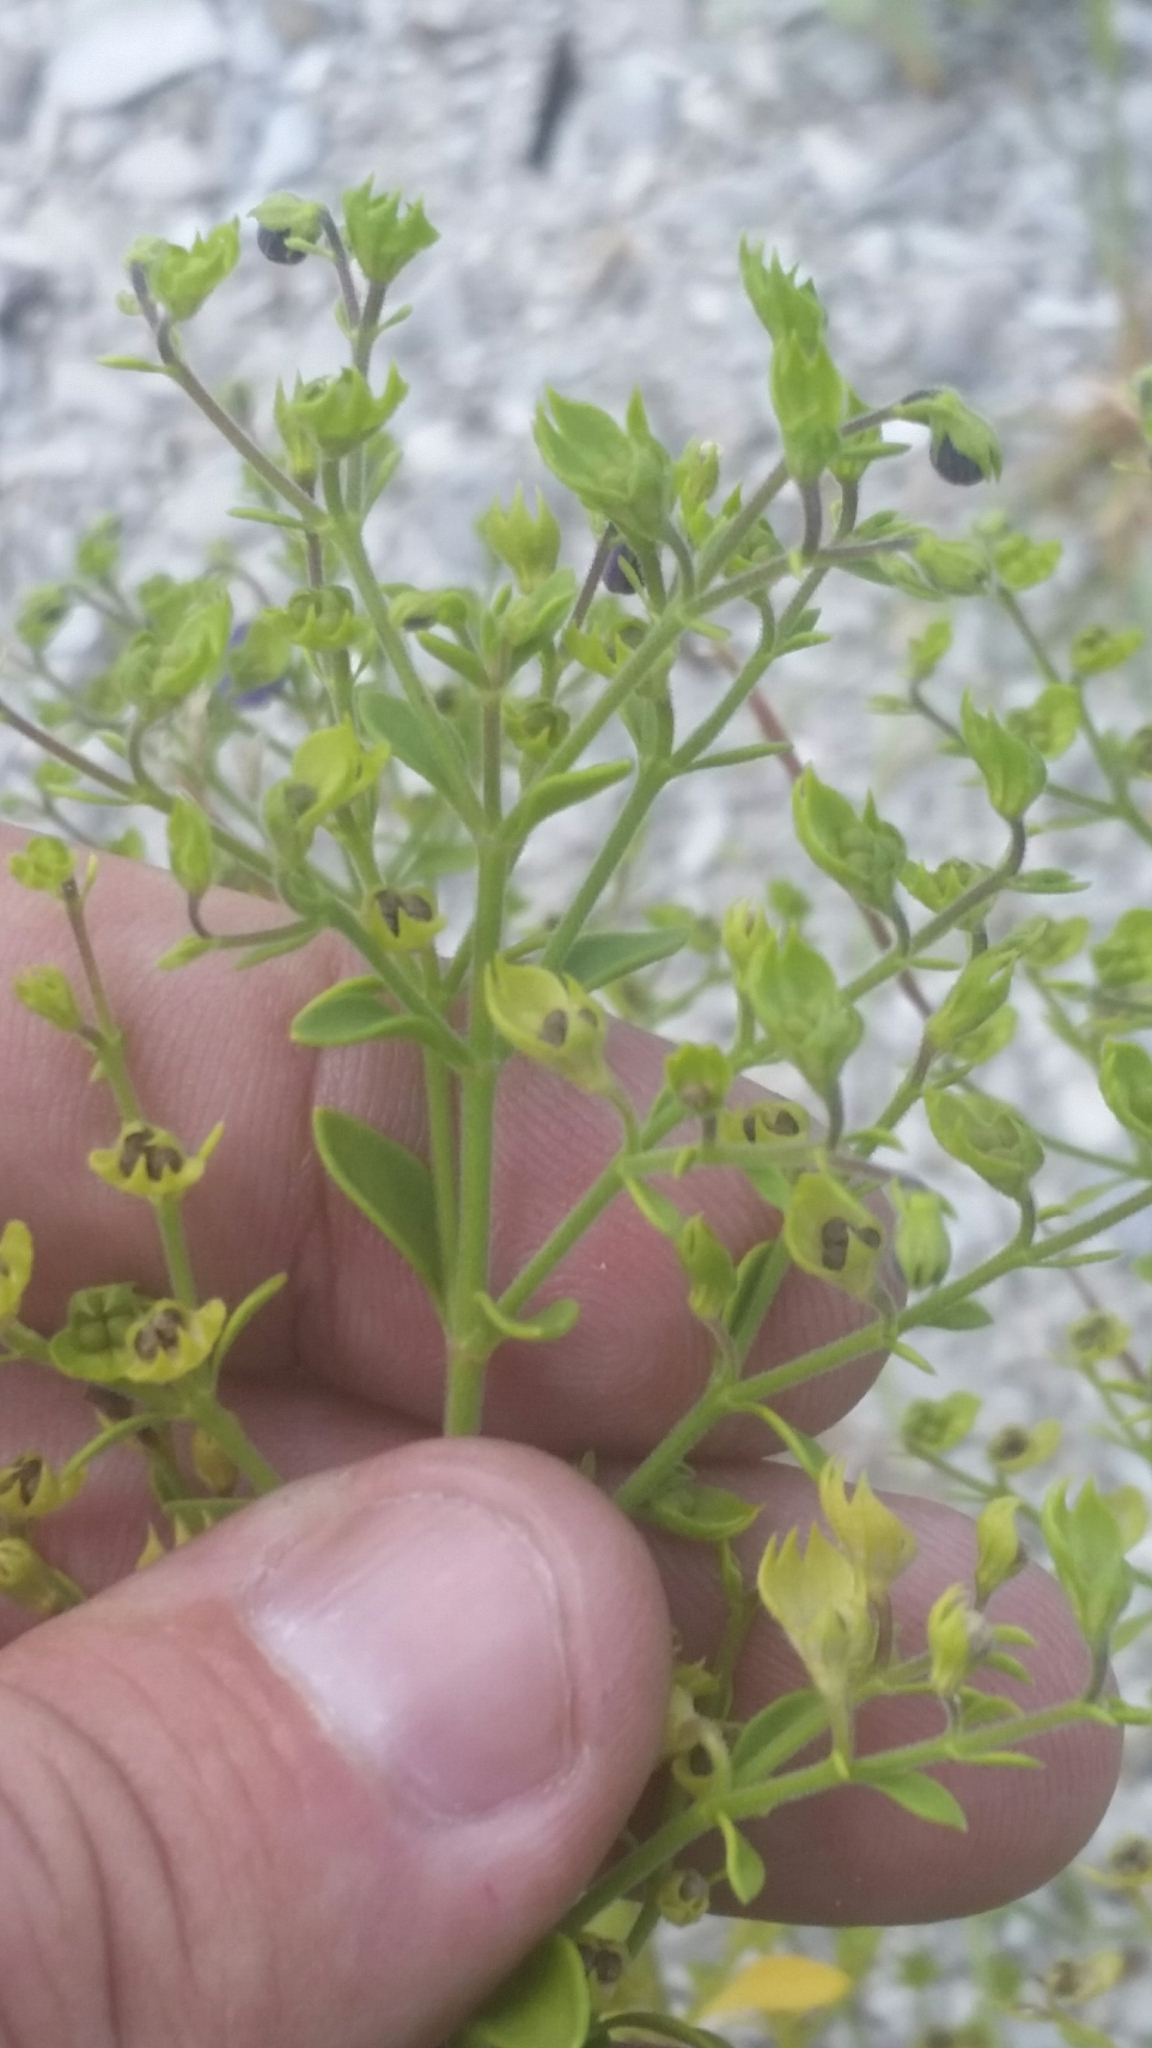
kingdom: Plantae
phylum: Tracheophyta
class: Magnoliopsida
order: Lamiales
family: Lamiaceae
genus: Trichostema
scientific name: Trichostema
